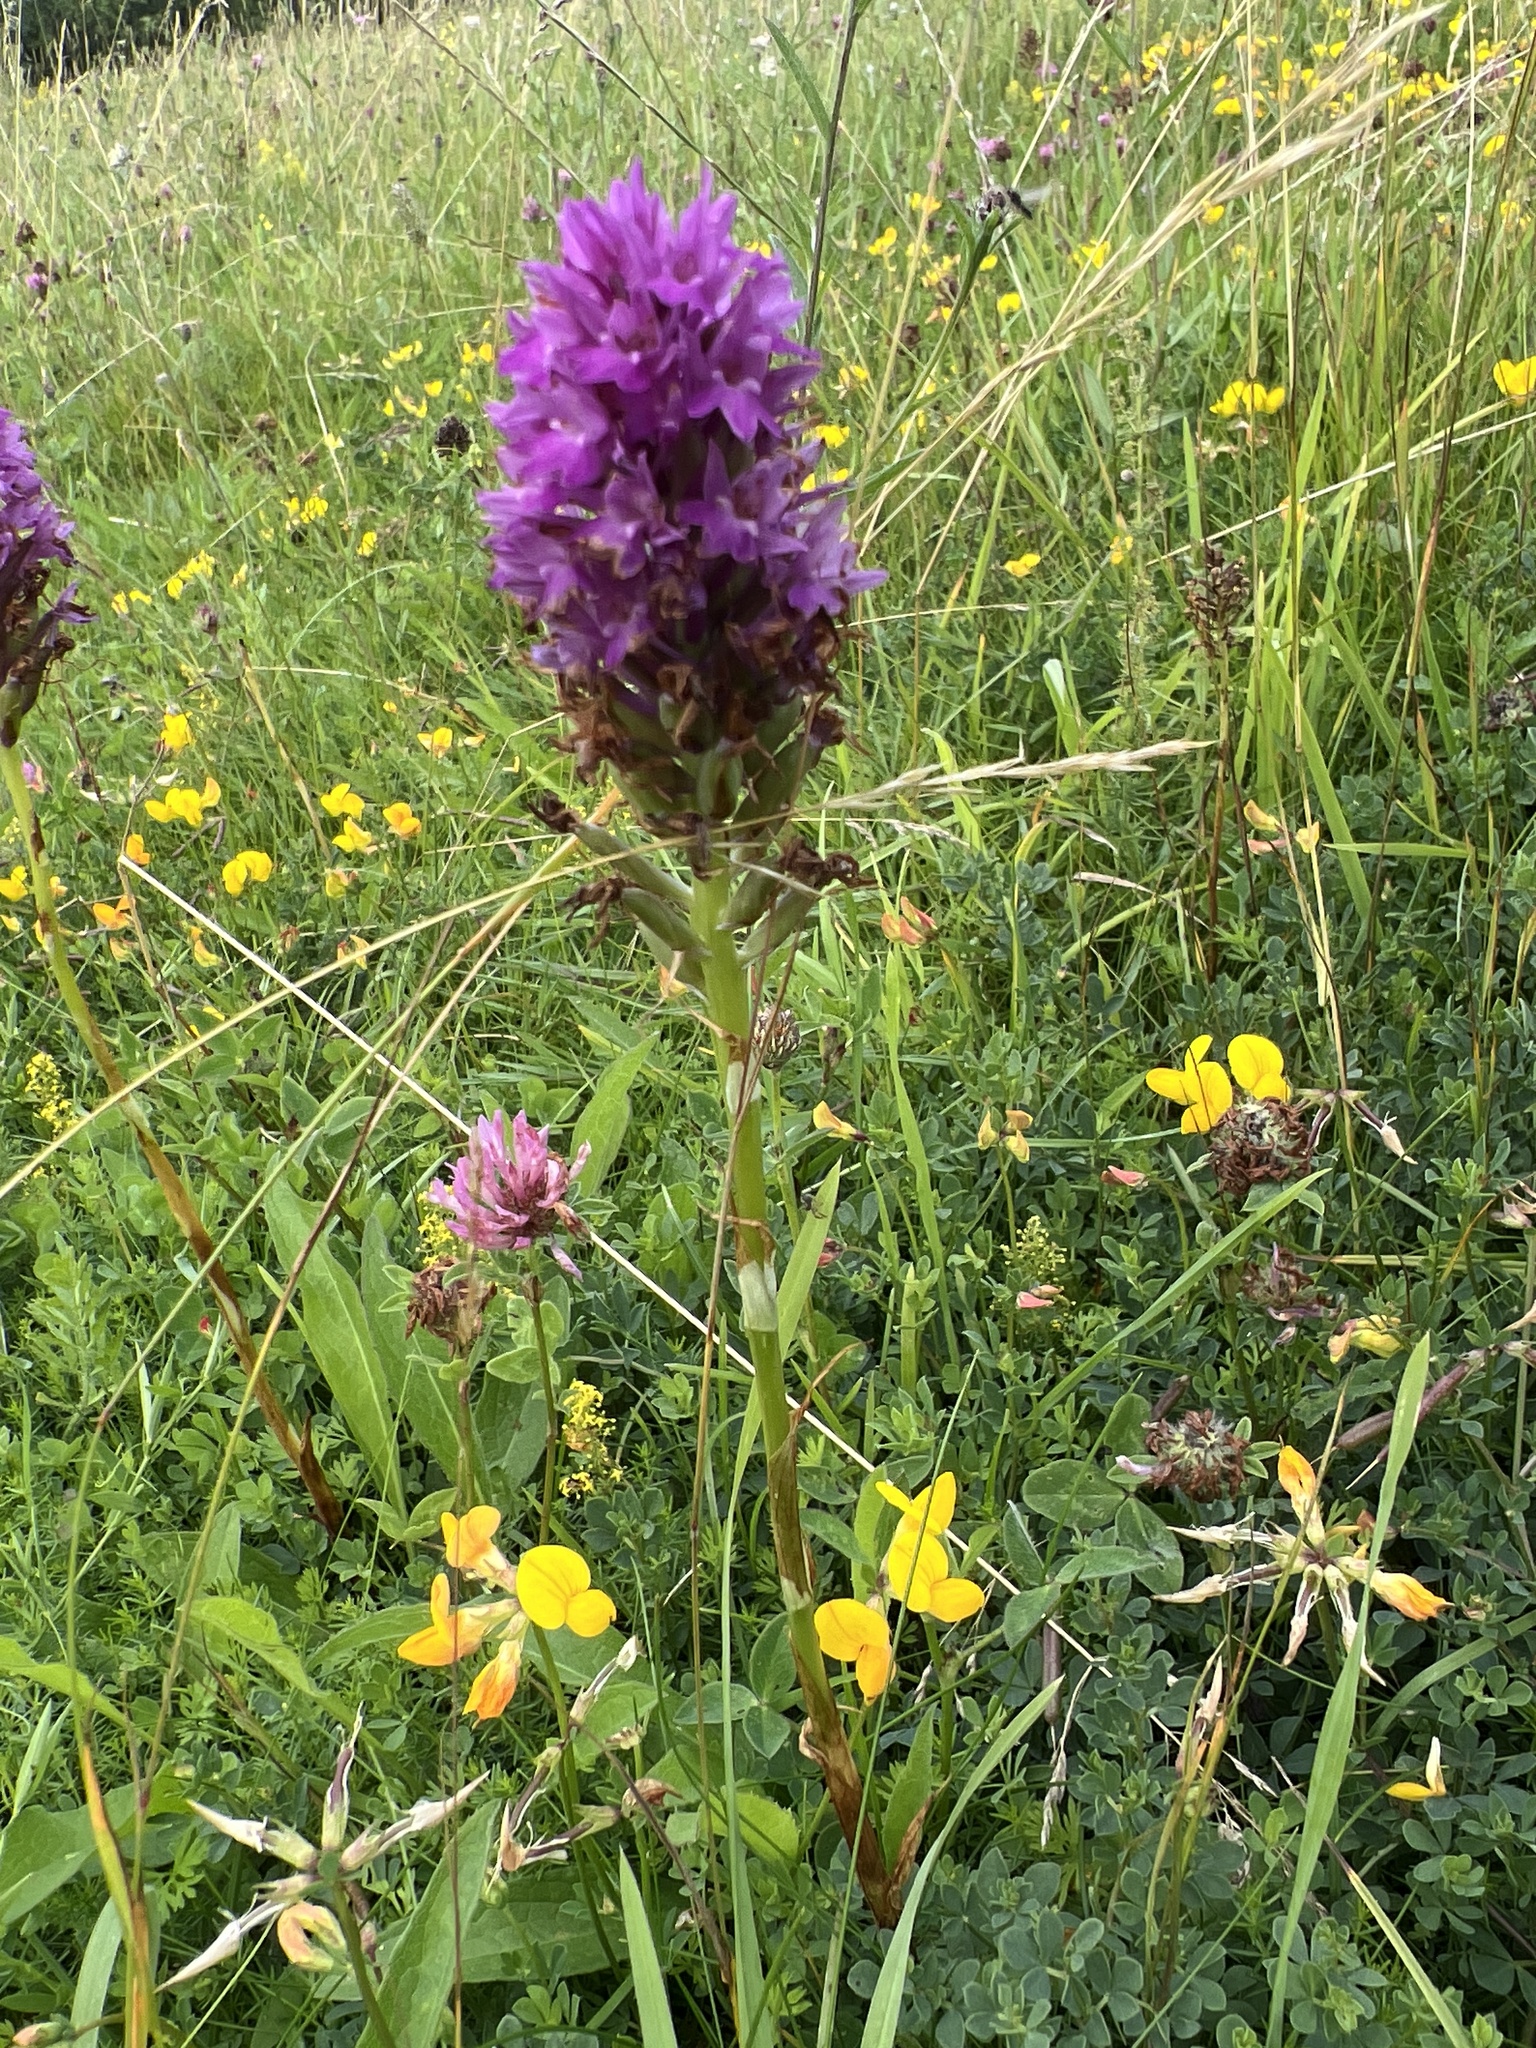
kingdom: Plantae
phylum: Tracheophyta
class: Liliopsida
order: Asparagales
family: Orchidaceae
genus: Anacamptis
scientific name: Anacamptis pyramidalis
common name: Pyramidal orchid
